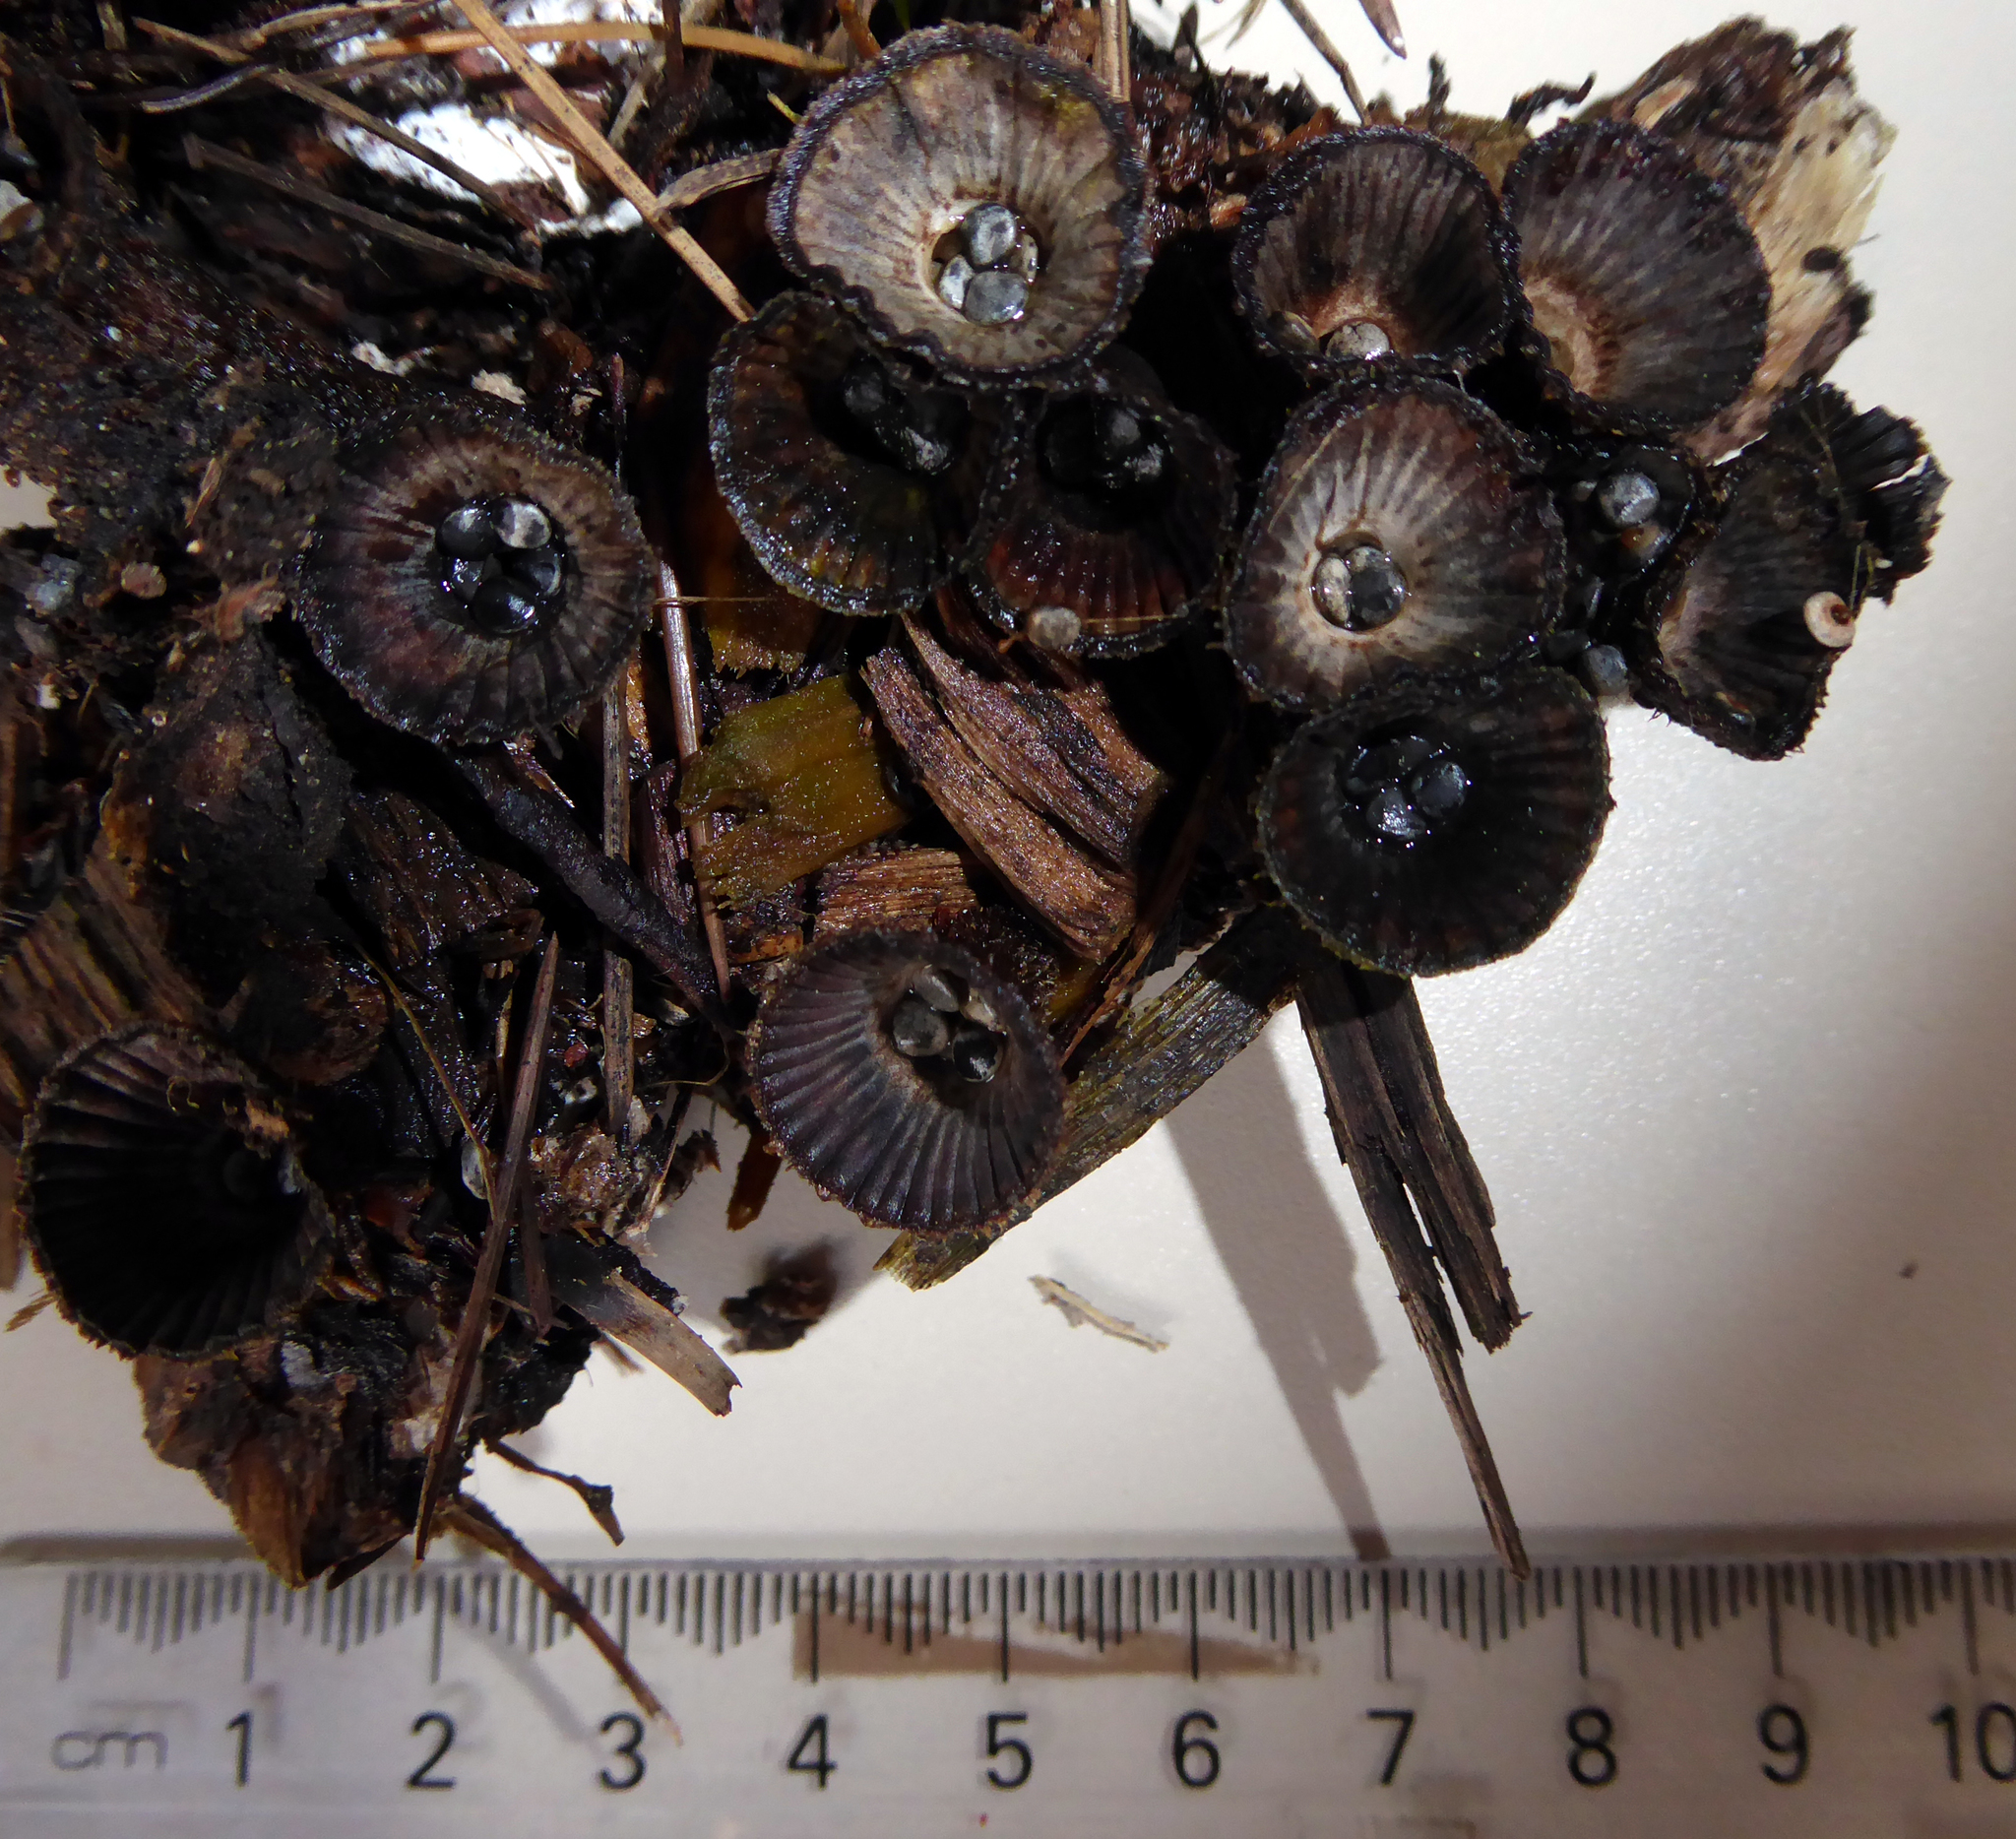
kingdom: Fungi
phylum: Basidiomycota
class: Agaricomycetes
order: Agaricales
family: Agaricaceae
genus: Cyathus
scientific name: Cyathus striatus
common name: Fluted bird's nest
